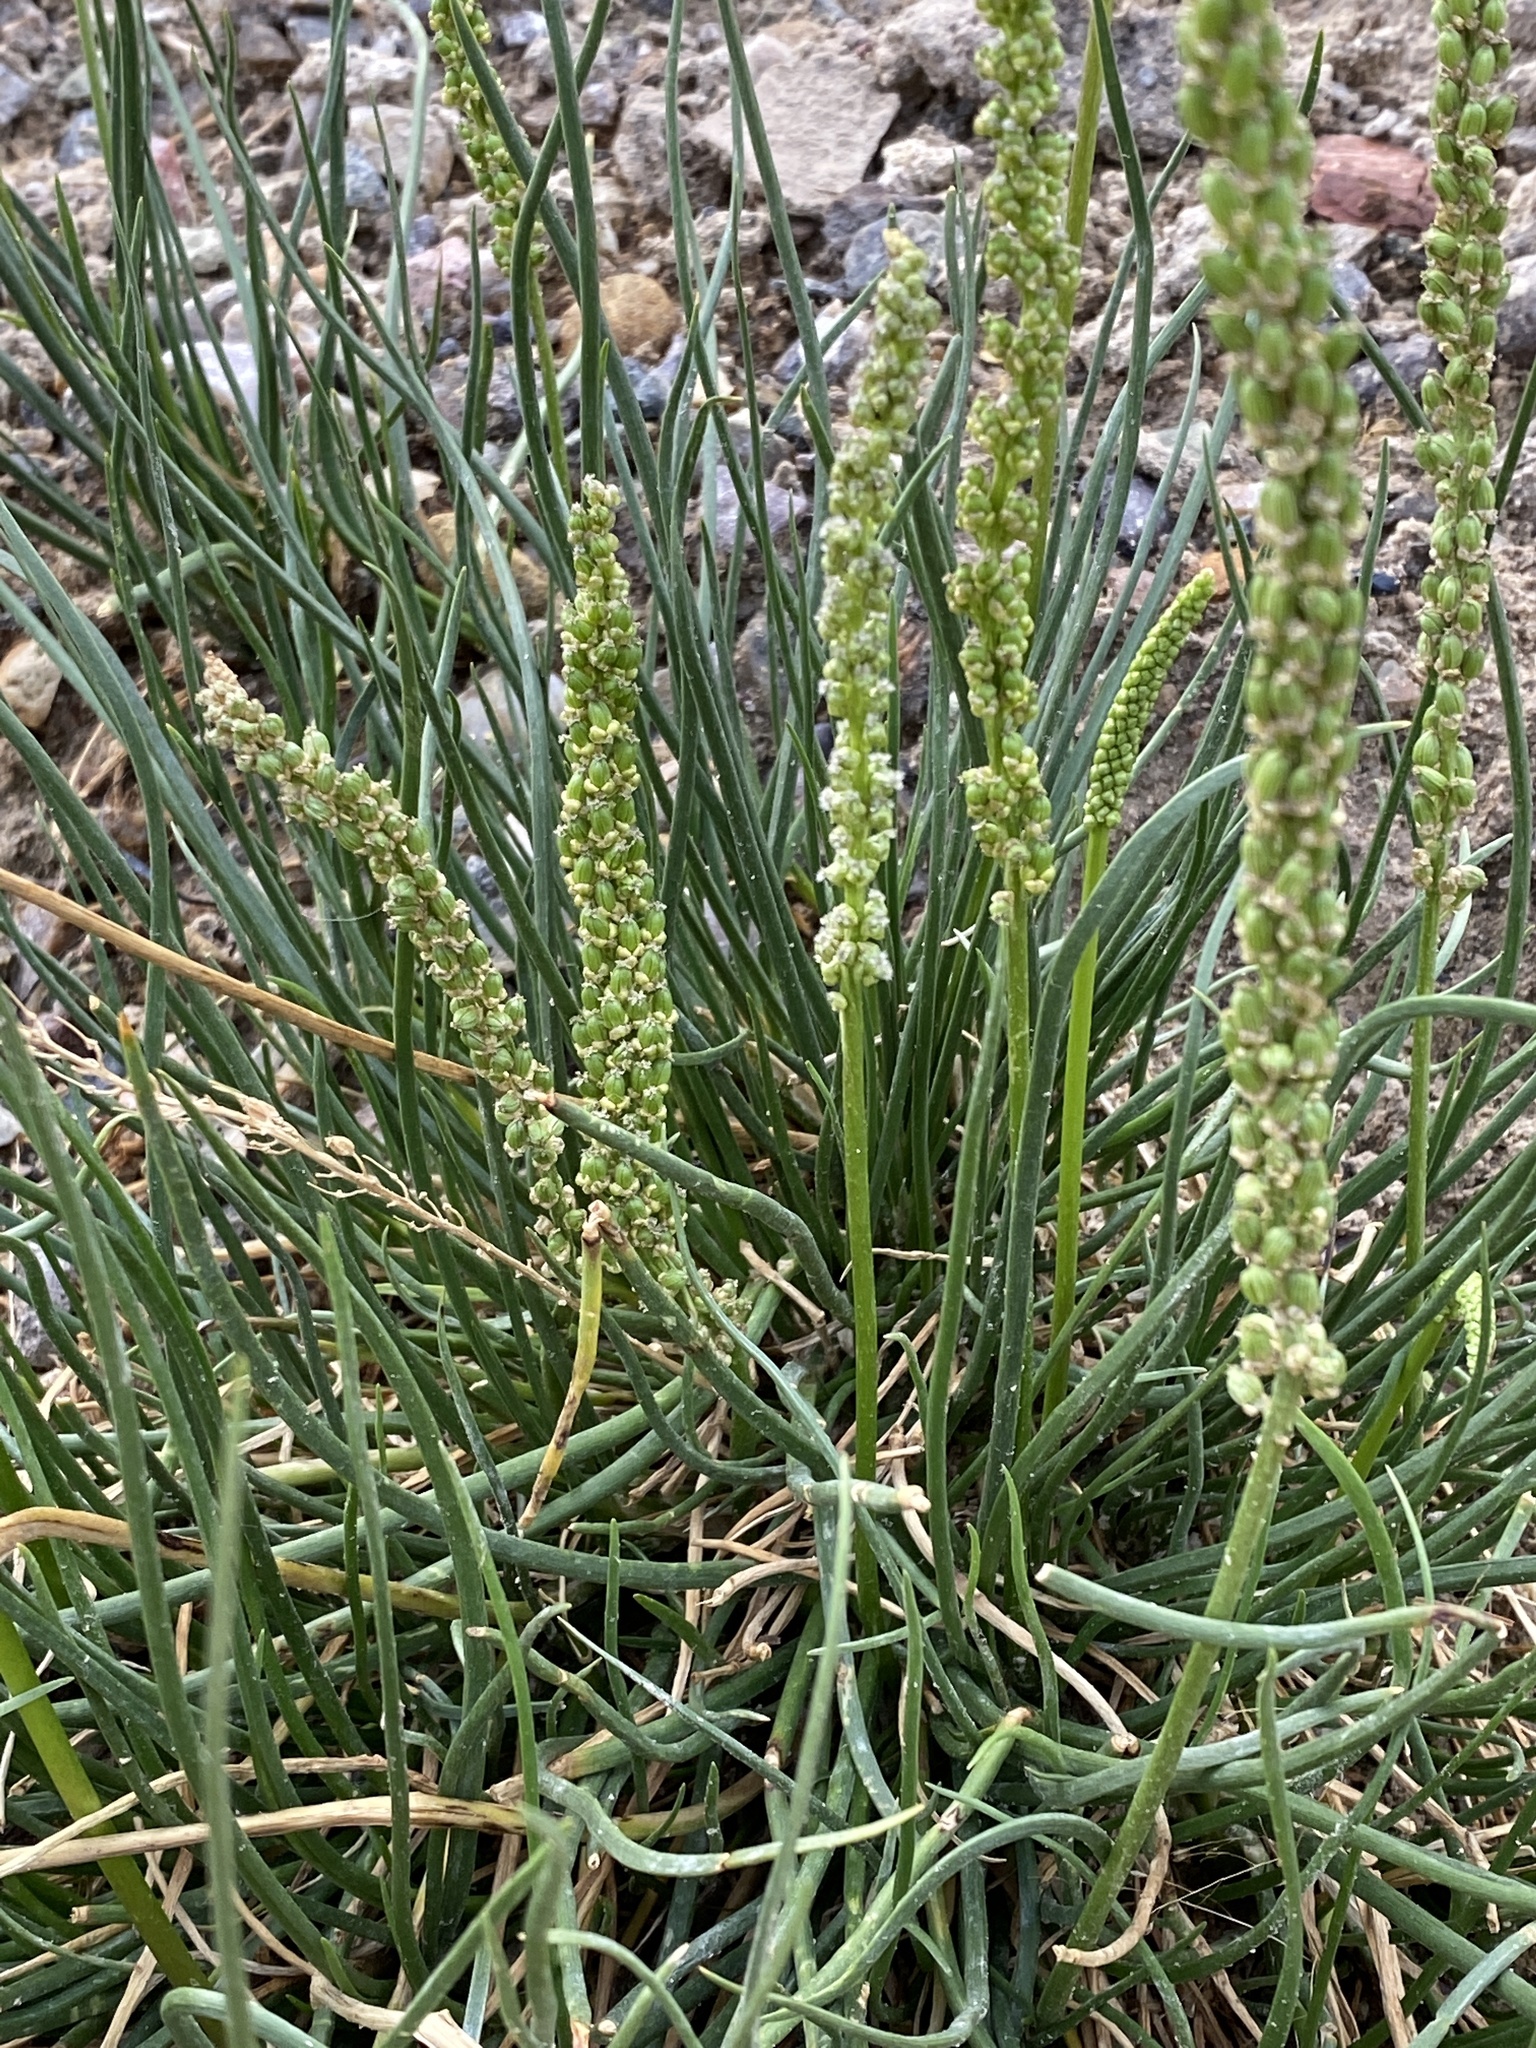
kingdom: Plantae
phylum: Tracheophyta
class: Liliopsida
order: Alismatales
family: Juncaginaceae
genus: Triglochin
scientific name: Triglochin maritima
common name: Sea arrowgrass
